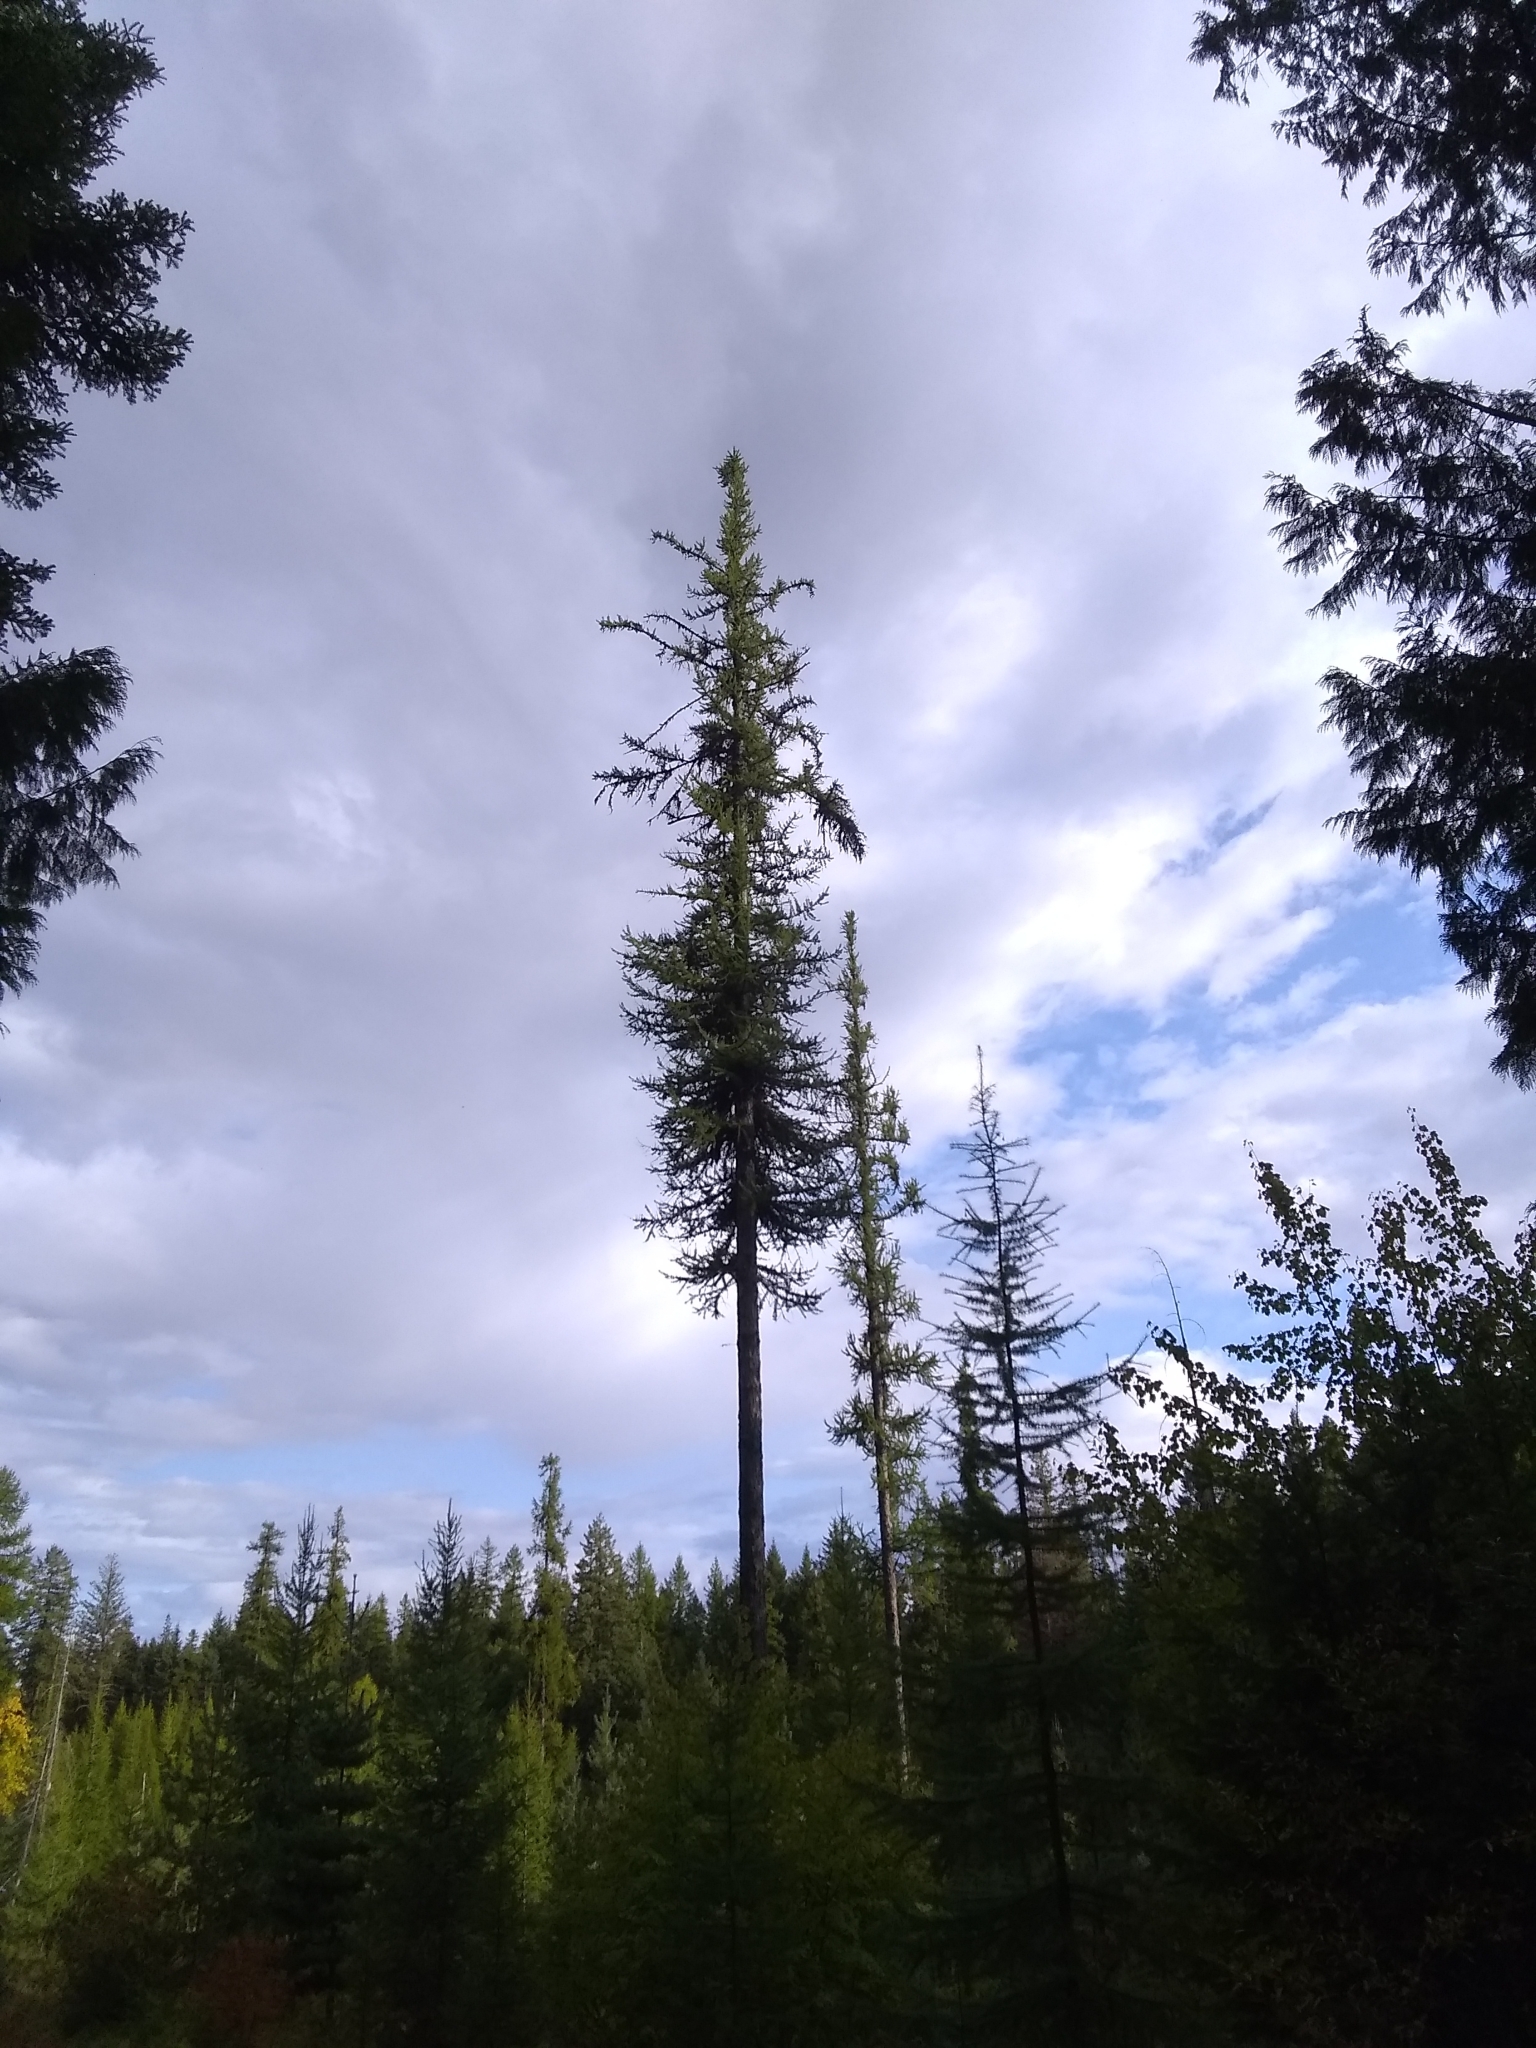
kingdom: Plantae
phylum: Tracheophyta
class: Pinopsida
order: Pinales
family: Pinaceae
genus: Larix
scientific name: Larix occidentalis
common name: Western larch
